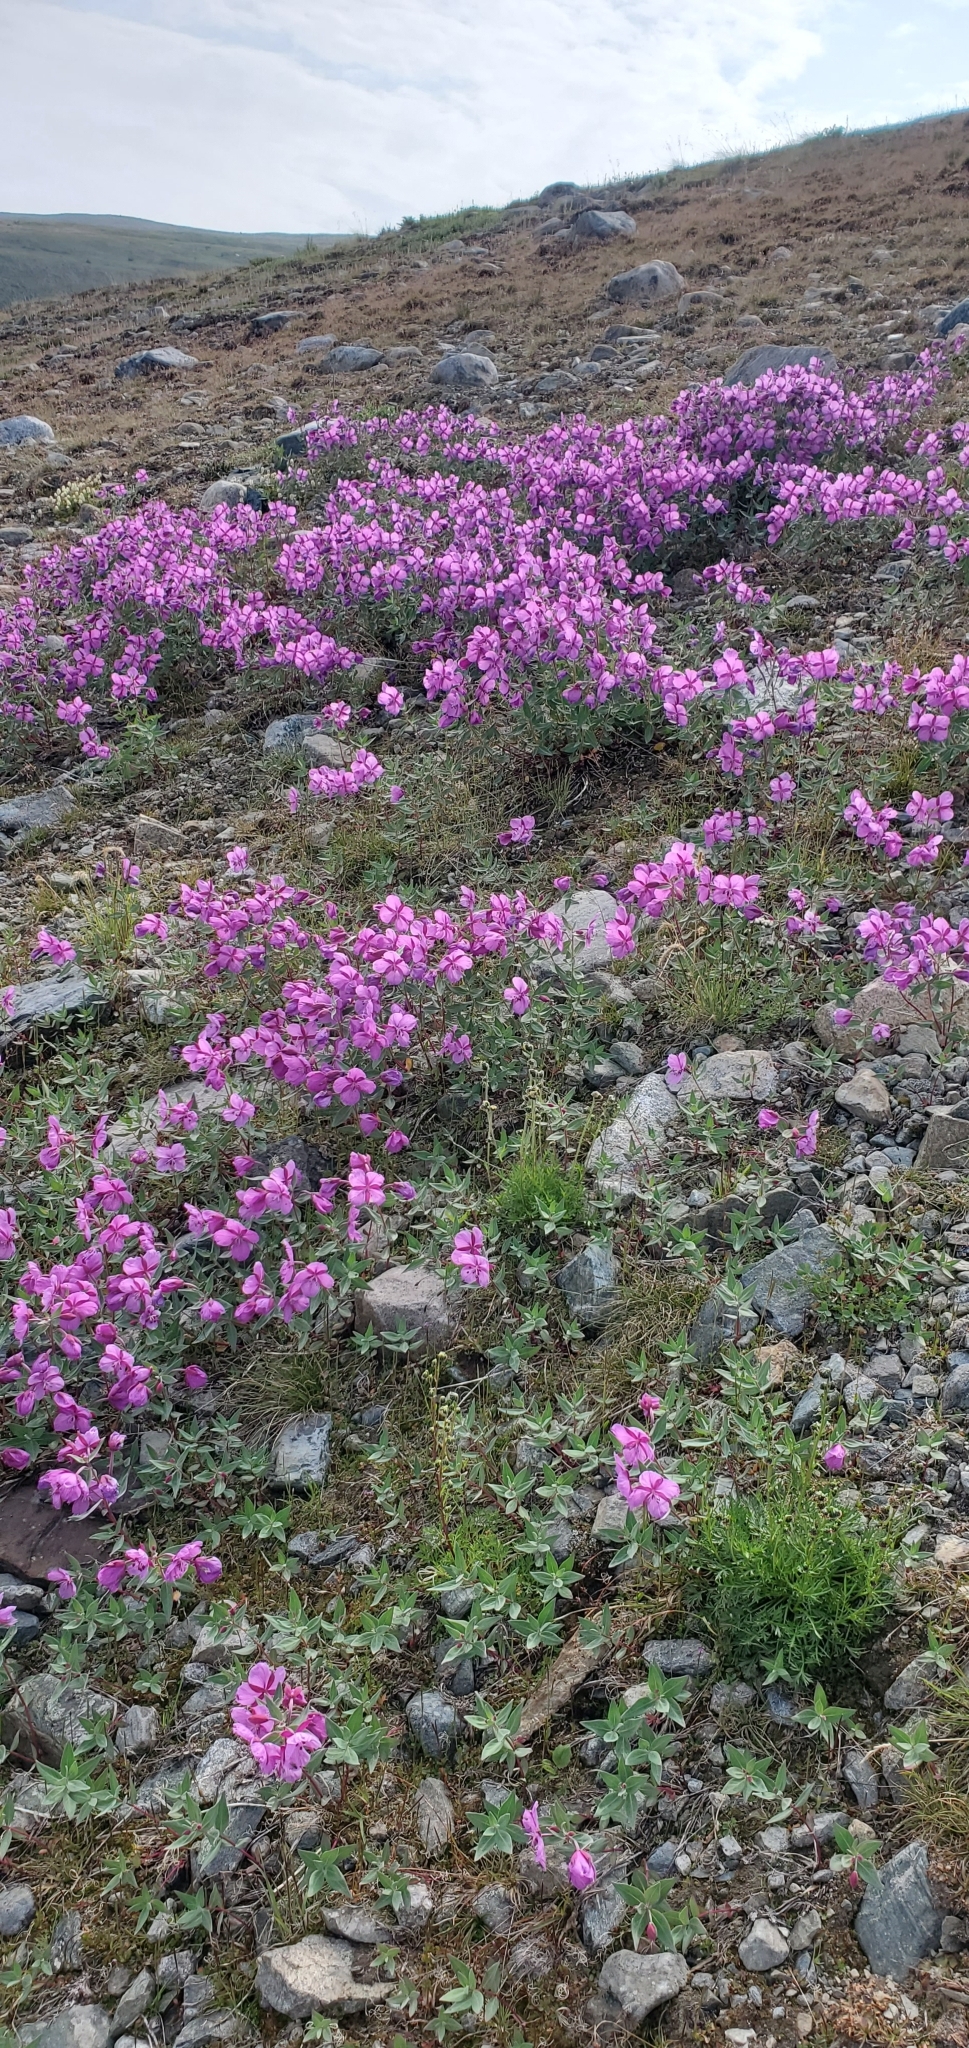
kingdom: Plantae
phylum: Tracheophyta
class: Magnoliopsida
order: Myrtales
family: Onagraceae
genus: Chamaenerion
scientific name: Chamaenerion latifolium
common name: Dwarf fireweed
